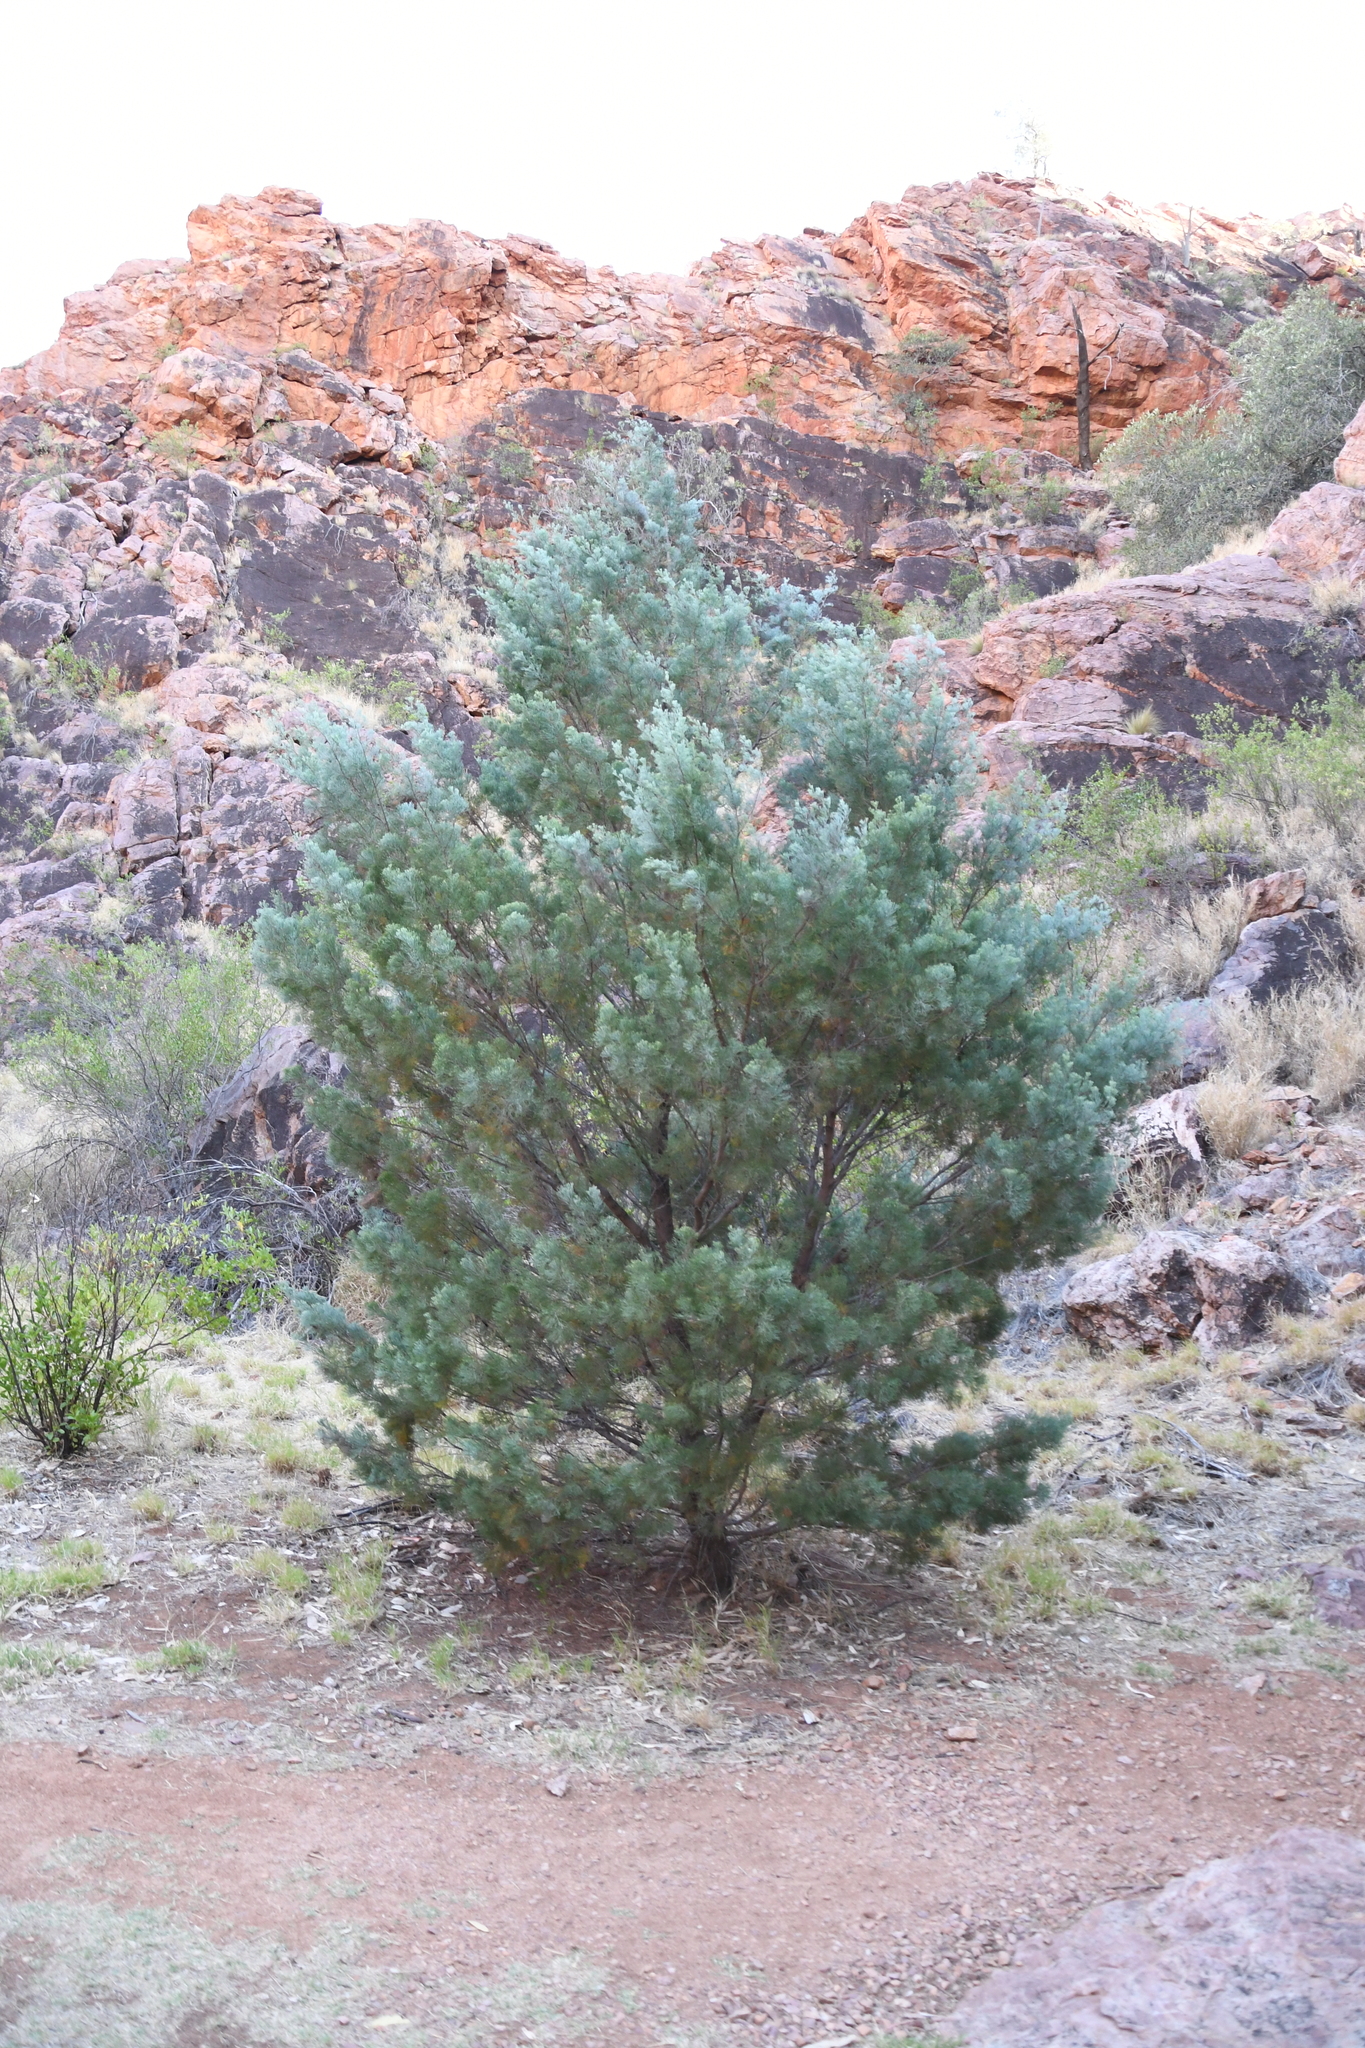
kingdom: Plantae
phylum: Tracheophyta
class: Pinopsida
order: Pinales
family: Cupressaceae
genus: Callitris
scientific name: Callitris columellaris
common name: White cypress-pine
